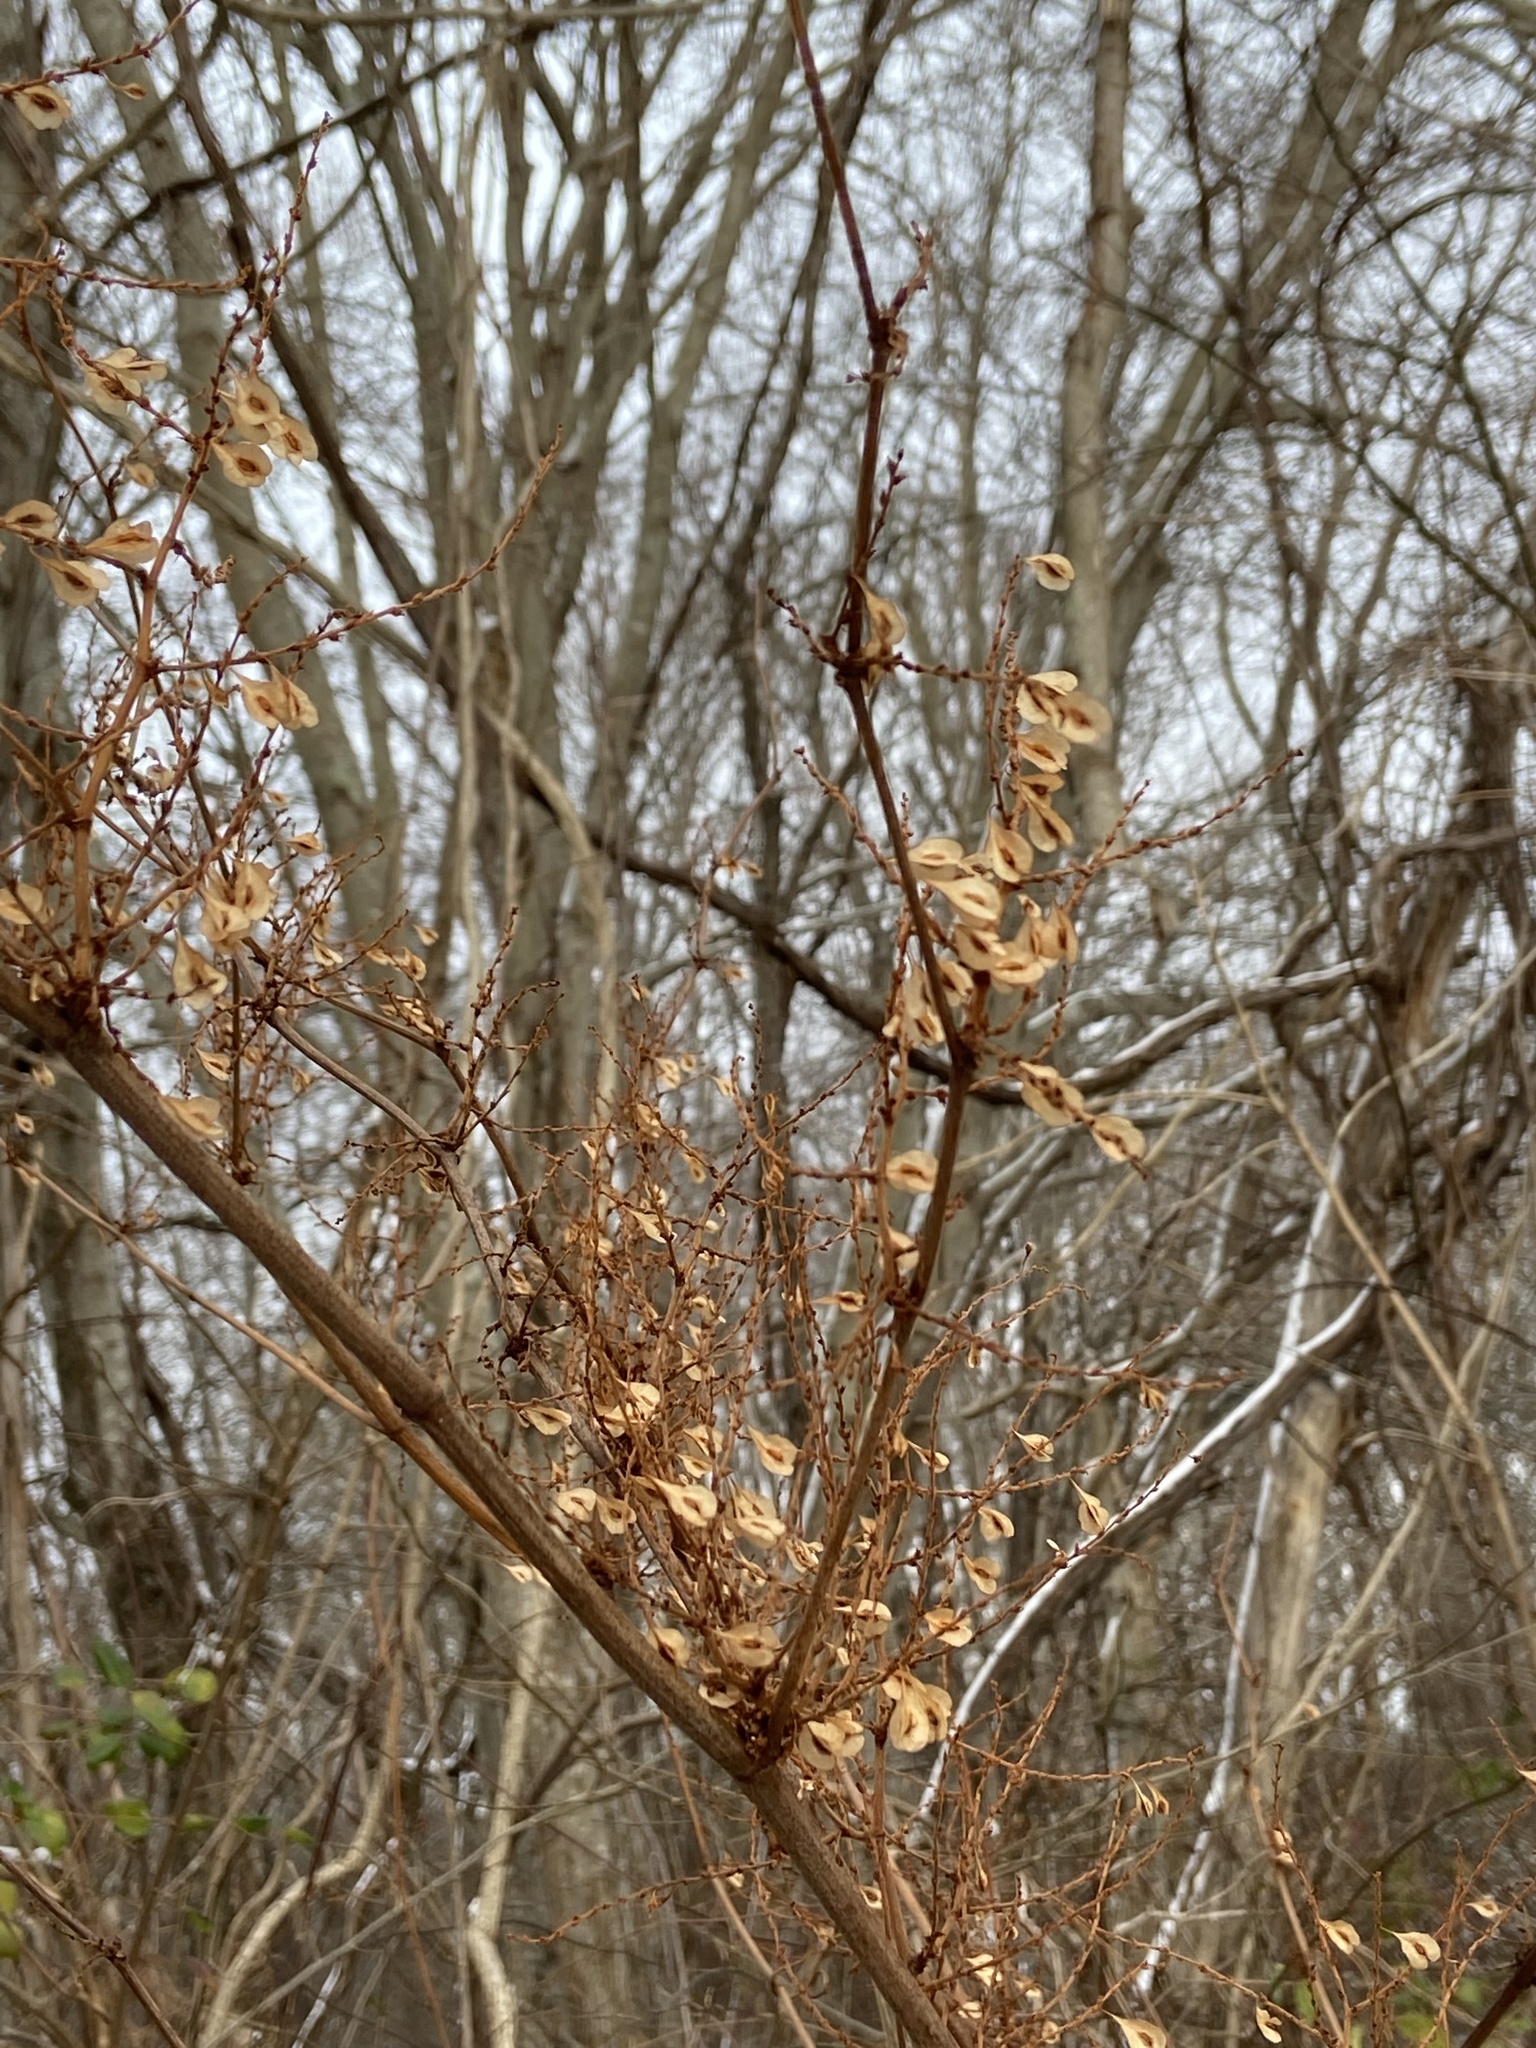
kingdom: Plantae
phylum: Tracheophyta
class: Magnoliopsida
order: Caryophyllales
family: Polygonaceae
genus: Reynoutria
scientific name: Reynoutria japonica
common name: Japanese knotweed
